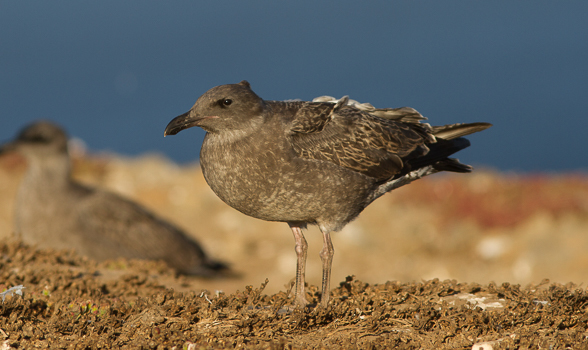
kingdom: Animalia
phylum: Chordata
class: Aves
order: Charadriiformes
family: Laridae
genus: Larus
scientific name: Larus occidentalis
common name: Western gull
